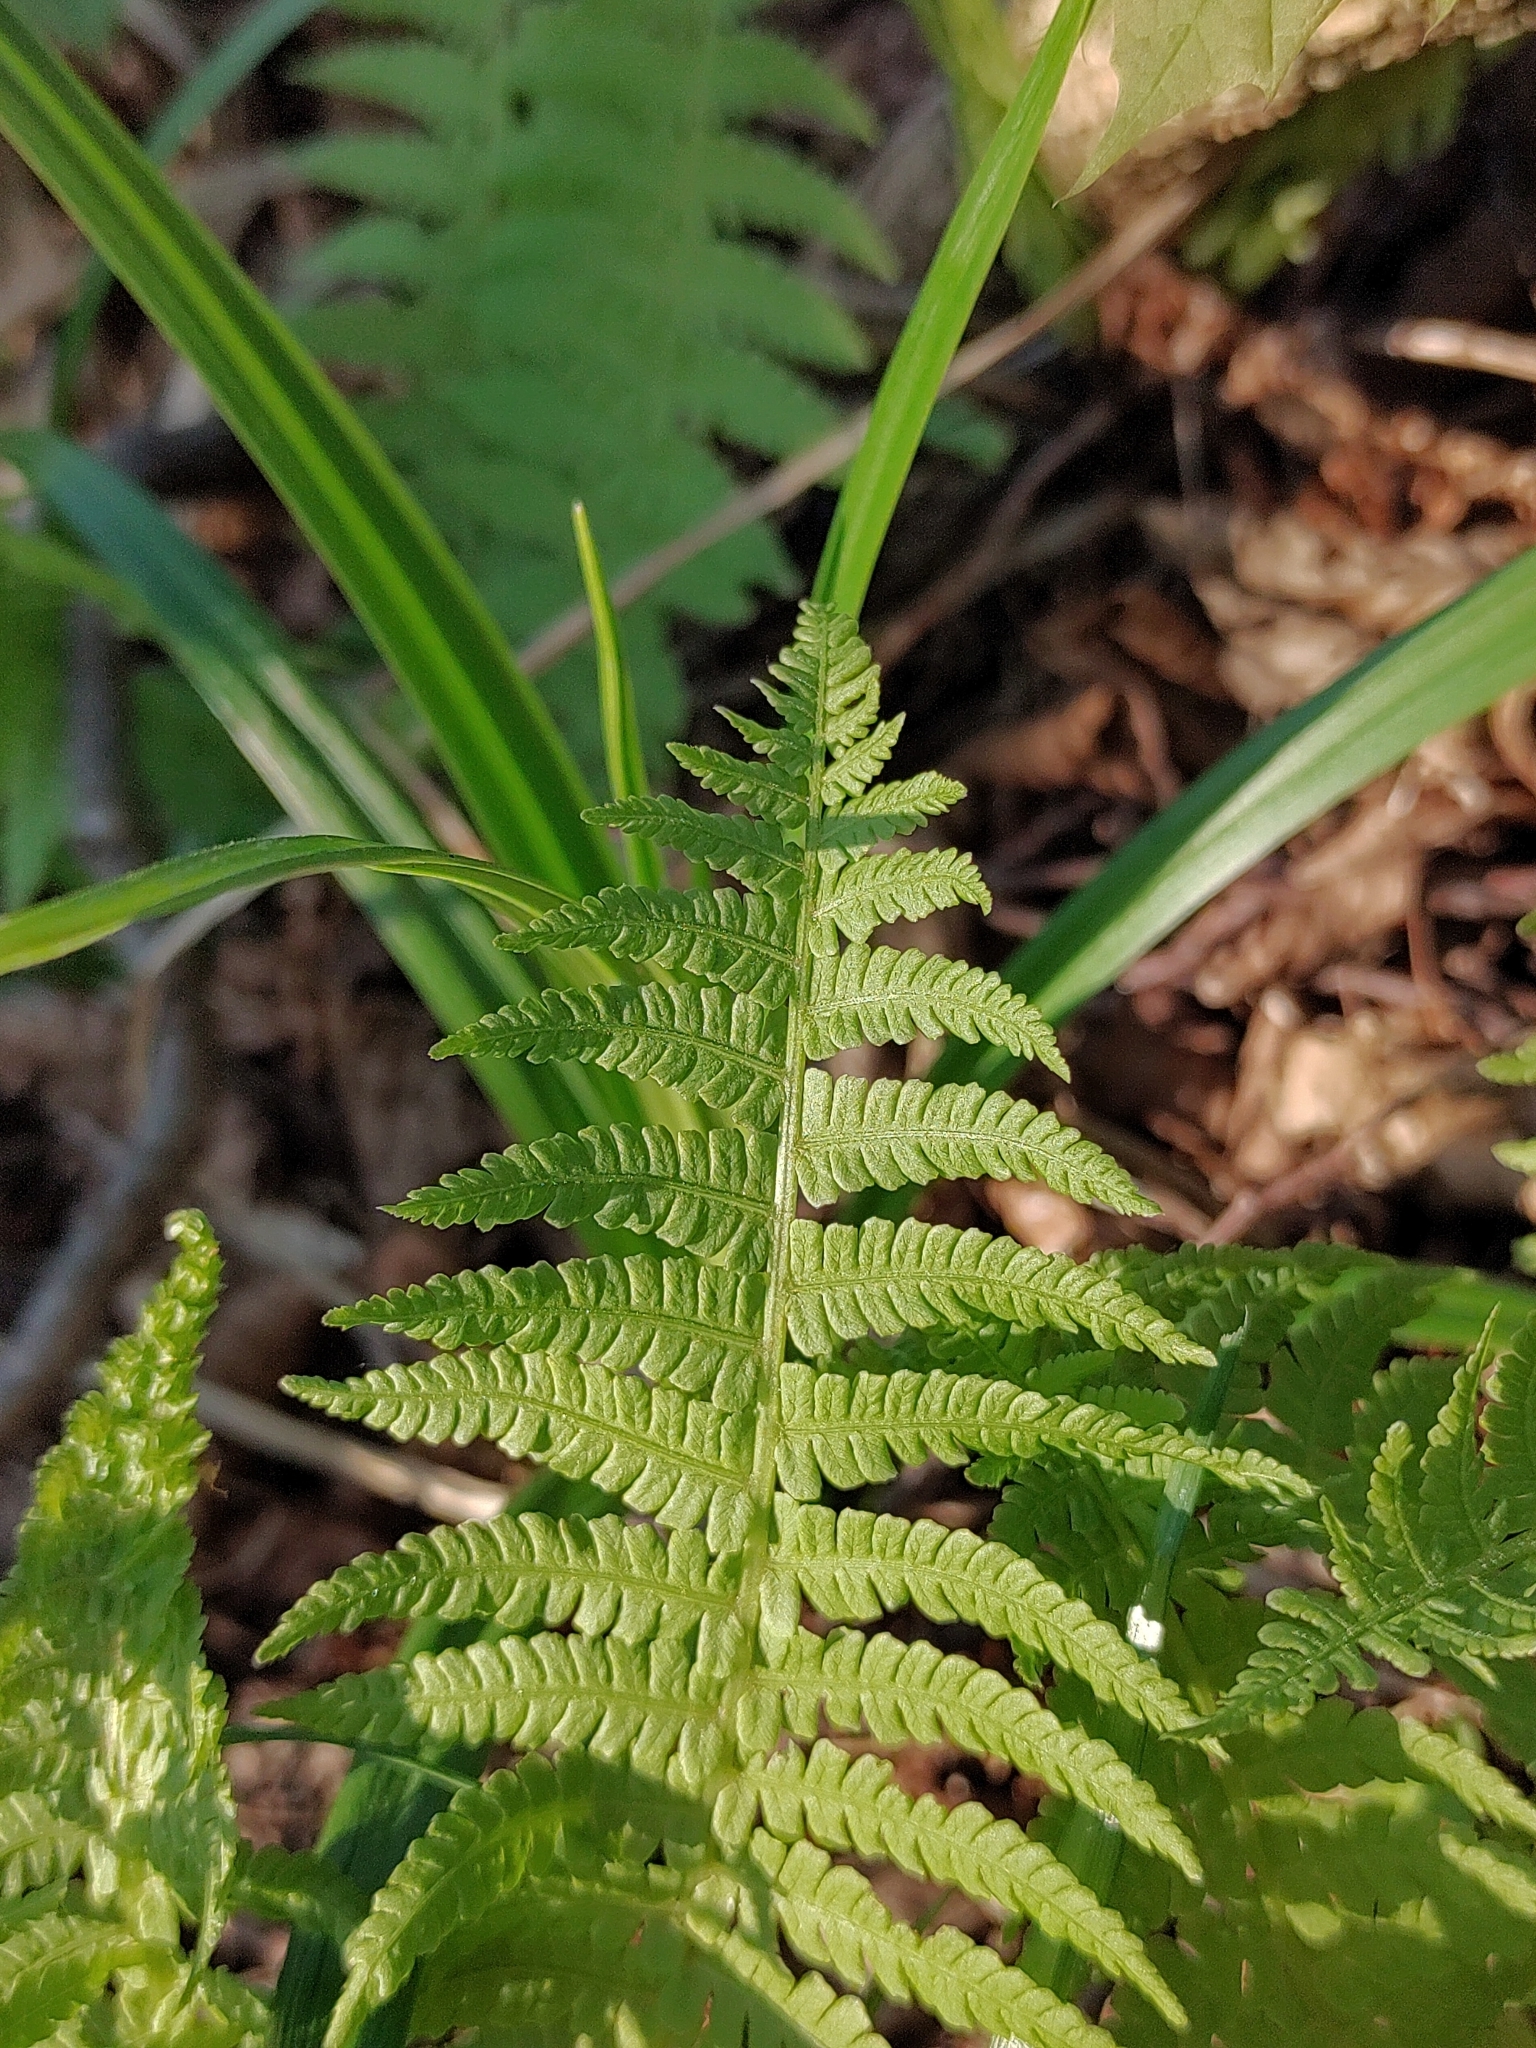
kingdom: Plantae
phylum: Tracheophyta
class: Polypodiopsida
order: Polypodiales
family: Onocleaceae
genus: Matteuccia
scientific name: Matteuccia struthiopteris
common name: Ostrich fern
